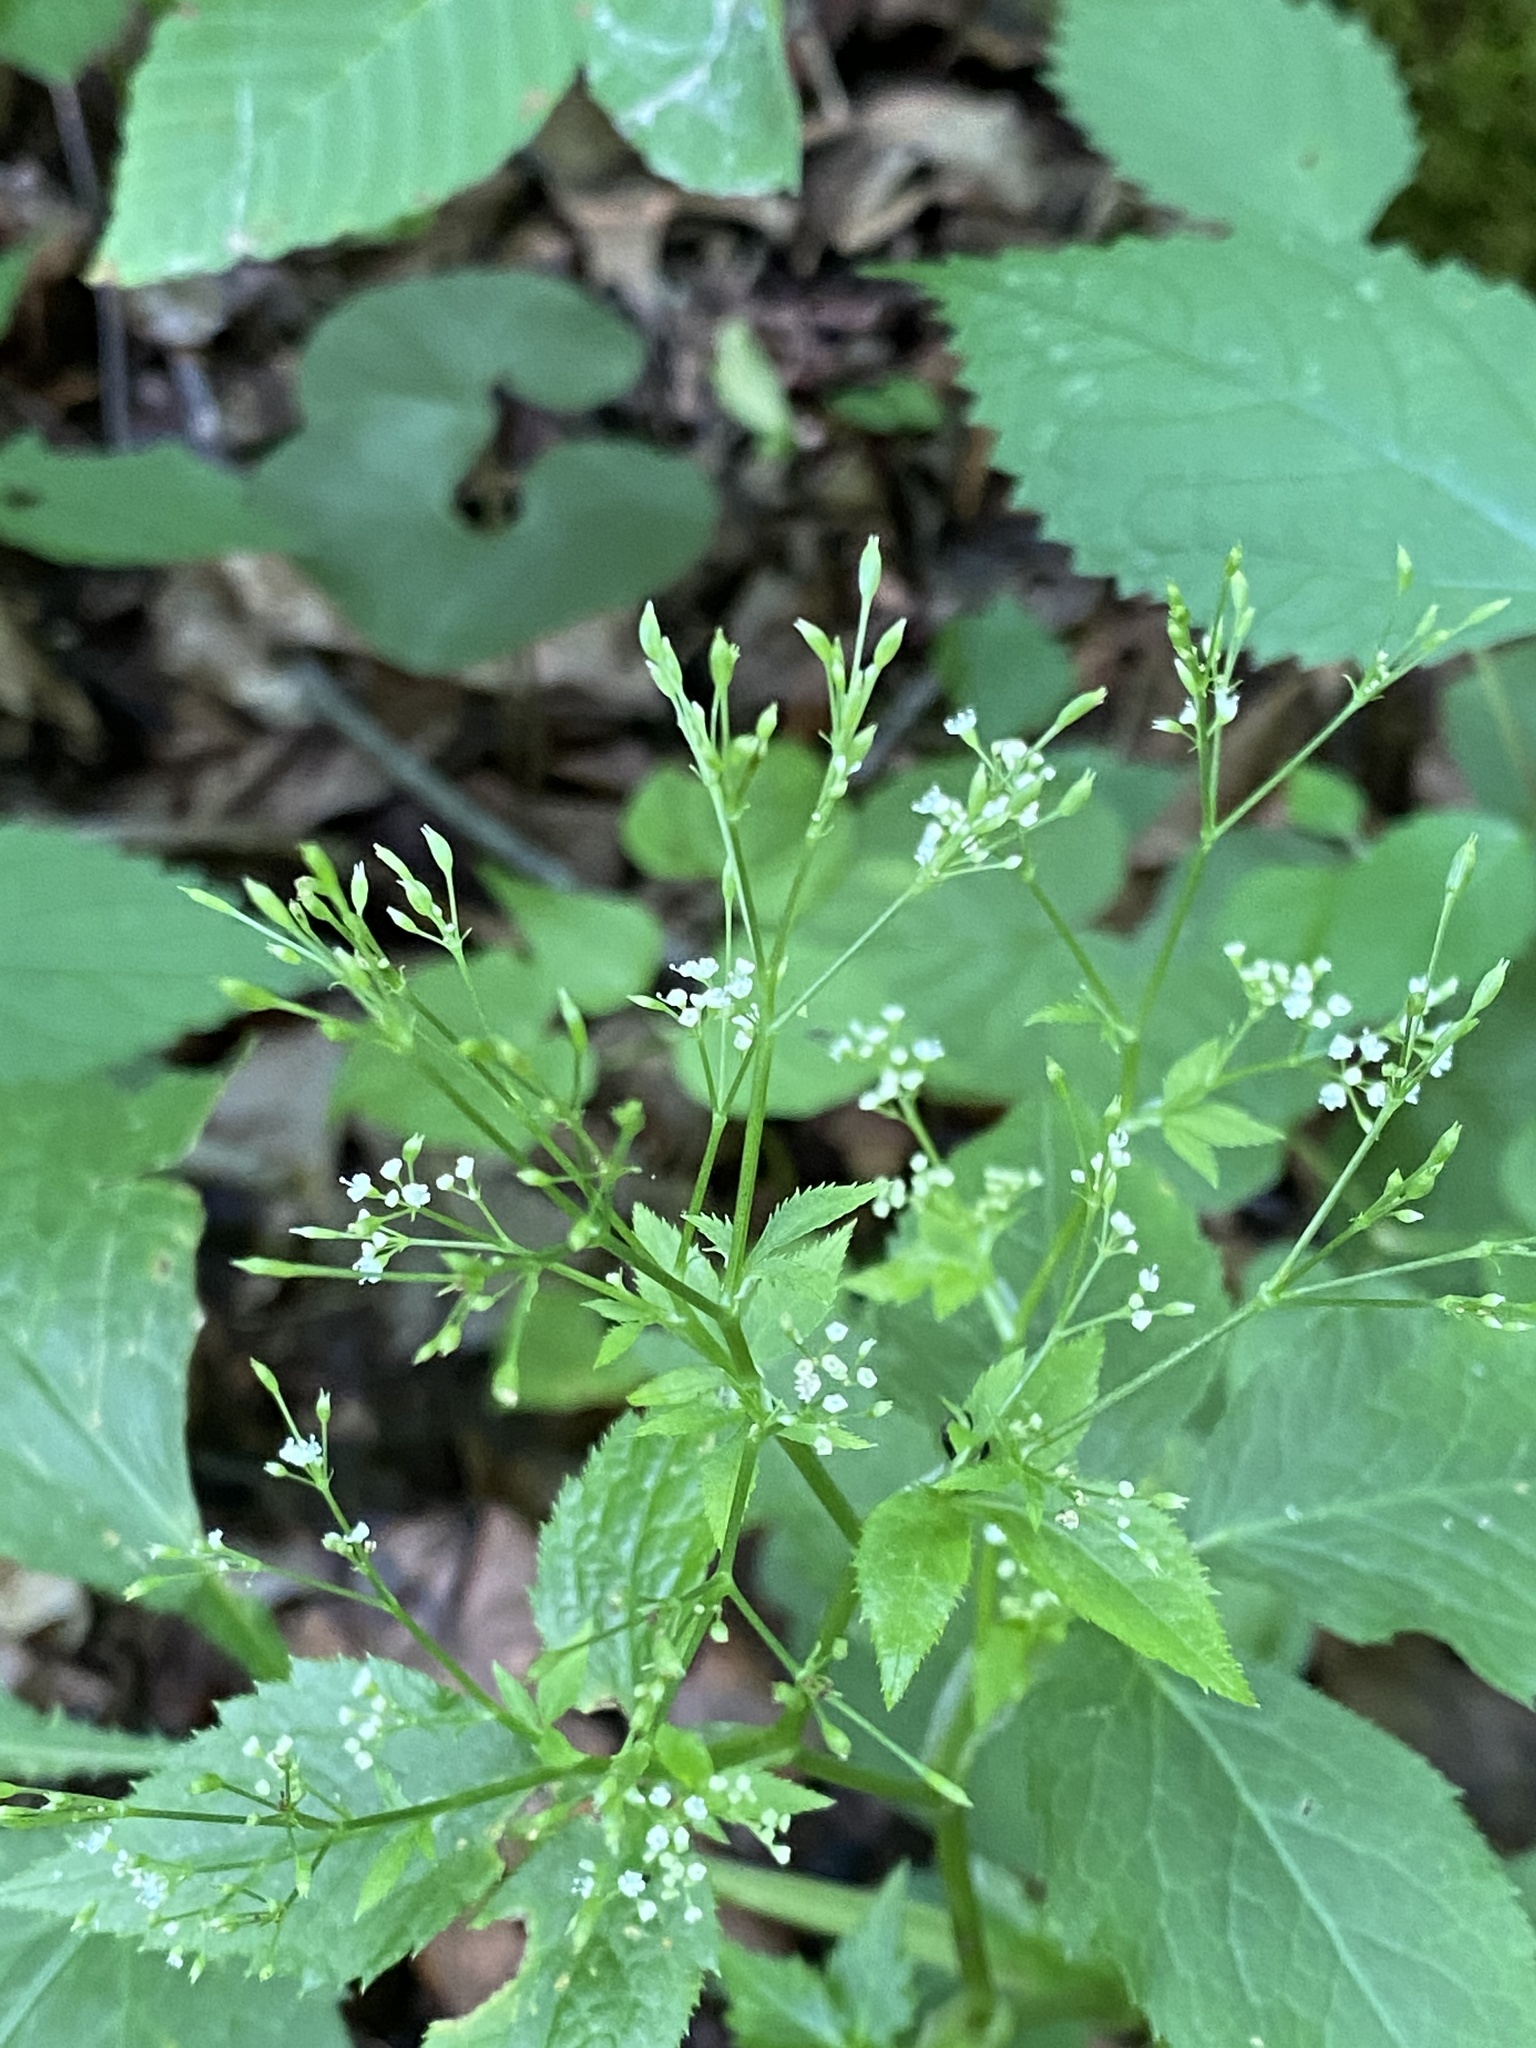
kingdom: Plantae
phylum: Tracheophyta
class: Magnoliopsida
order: Apiales
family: Apiaceae
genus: Cryptotaenia
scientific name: Cryptotaenia canadensis
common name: Honewort
